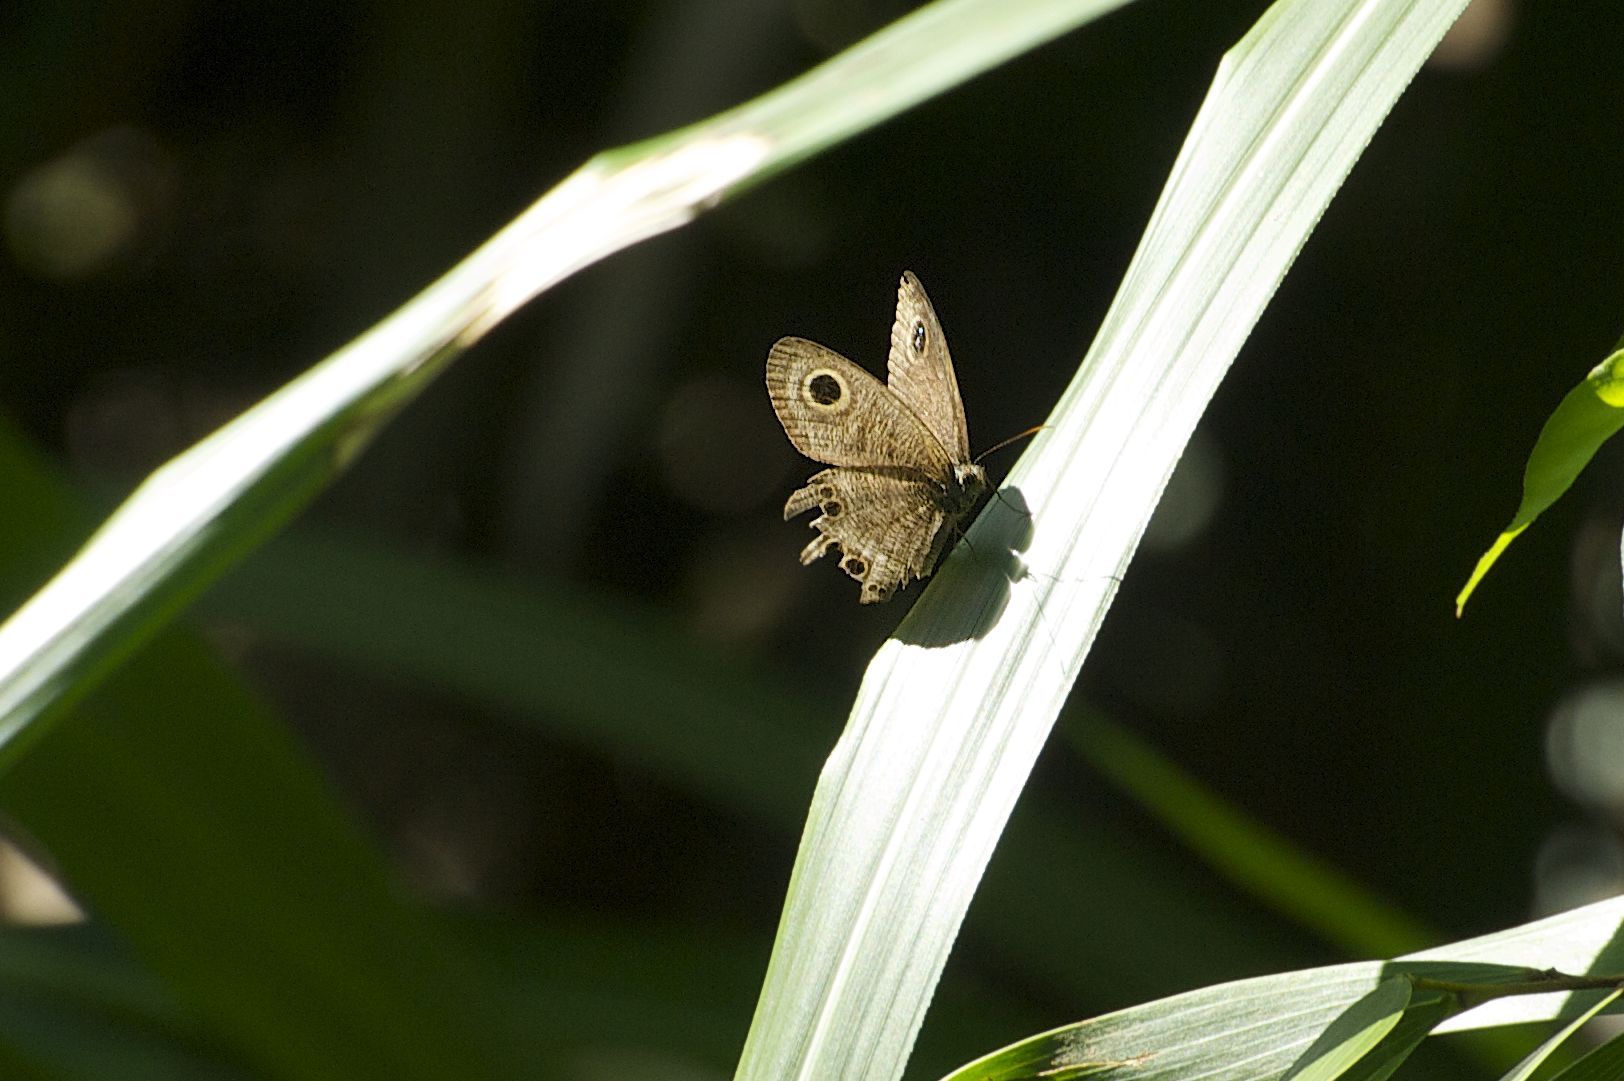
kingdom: Animalia
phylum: Arthropoda
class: Insecta
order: Lepidoptera
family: Nymphalidae
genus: Ypthima
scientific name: Ypthima baldus
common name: Common five-ring
